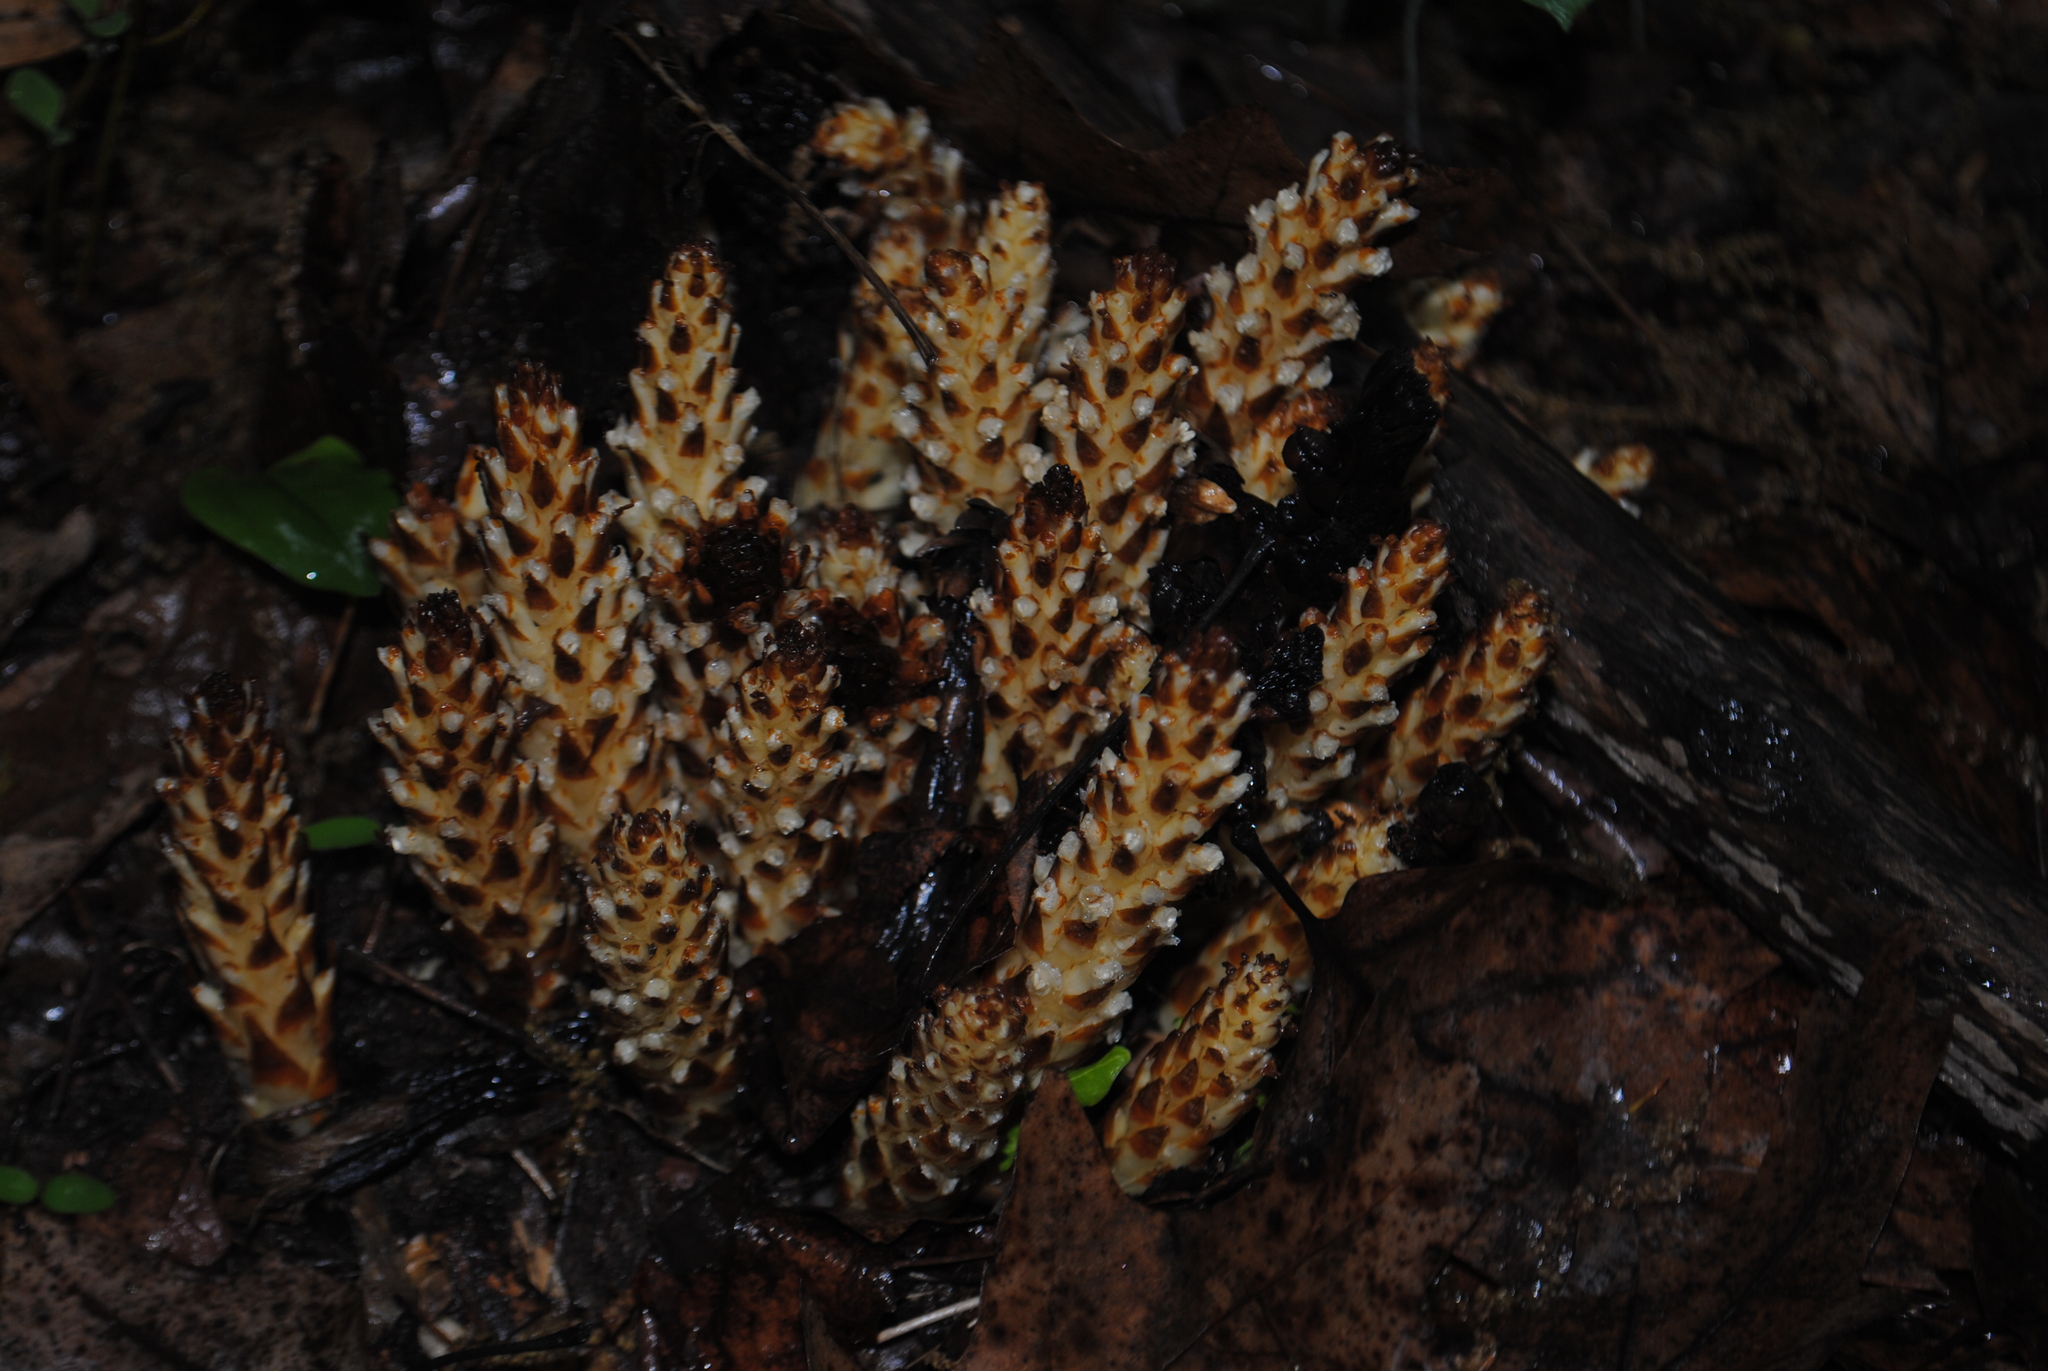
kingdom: Plantae
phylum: Tracheophyta
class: Magnoliopsida
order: Lamiales
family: Orobanchaceae
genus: Conopholis
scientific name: Conopholis americana
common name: American cancer-root
